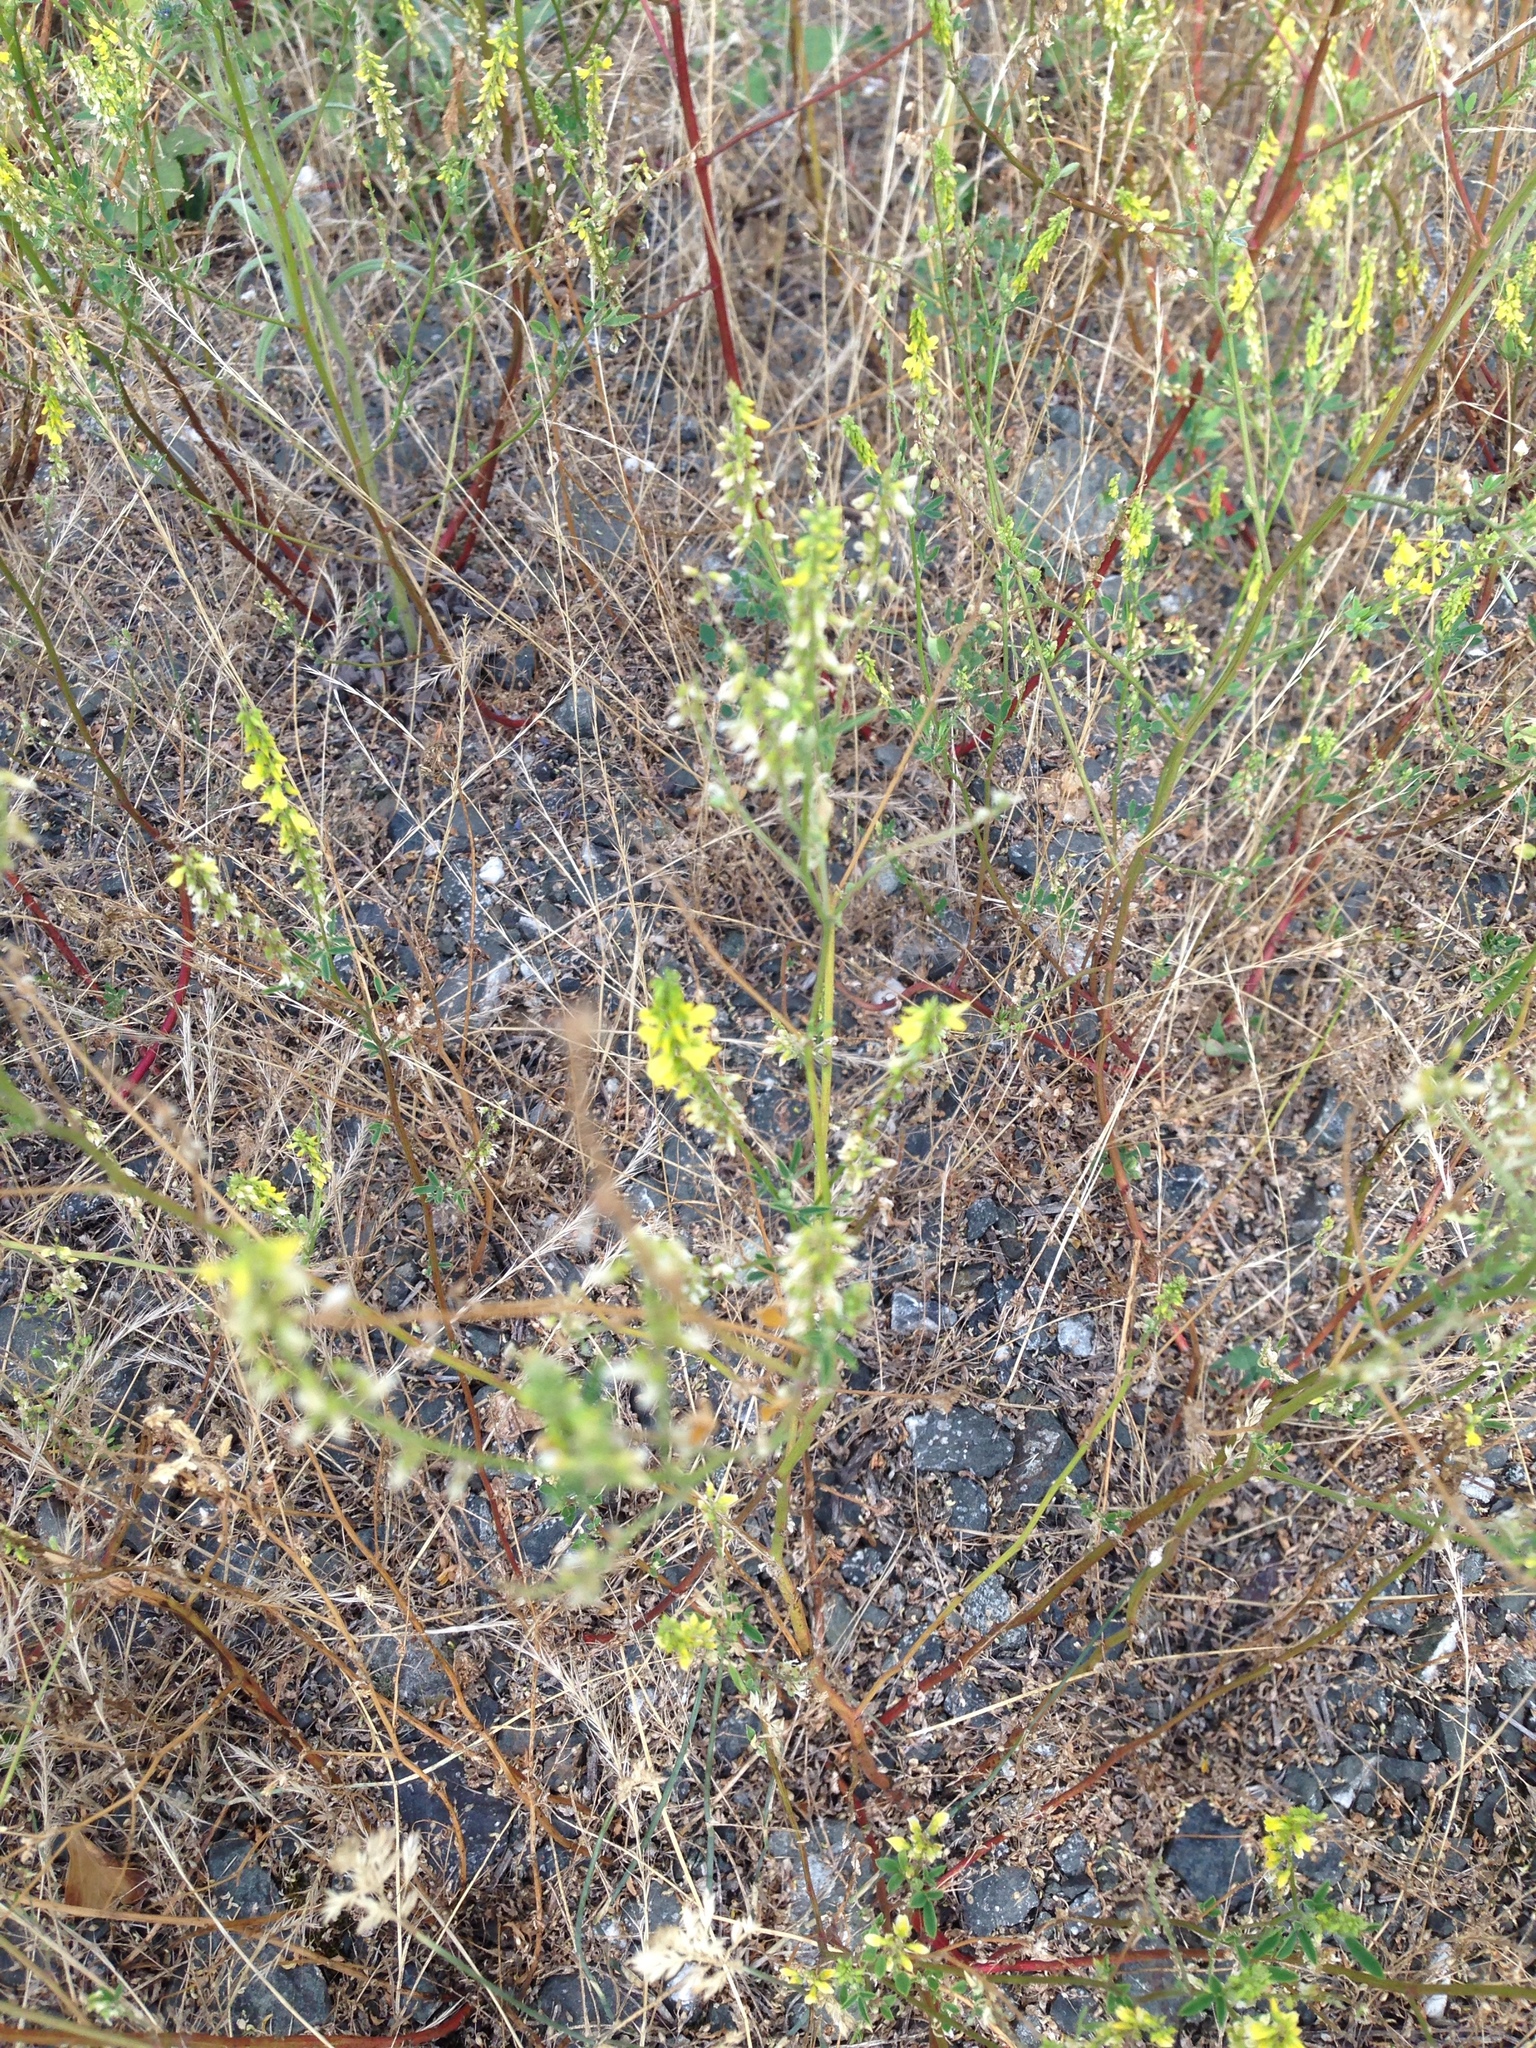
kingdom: Plantae
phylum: Tracheophyta
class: Magnoliopsida
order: Fabales
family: Fabaceae
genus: Melilotus
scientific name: Melilotus albus
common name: White melilot
